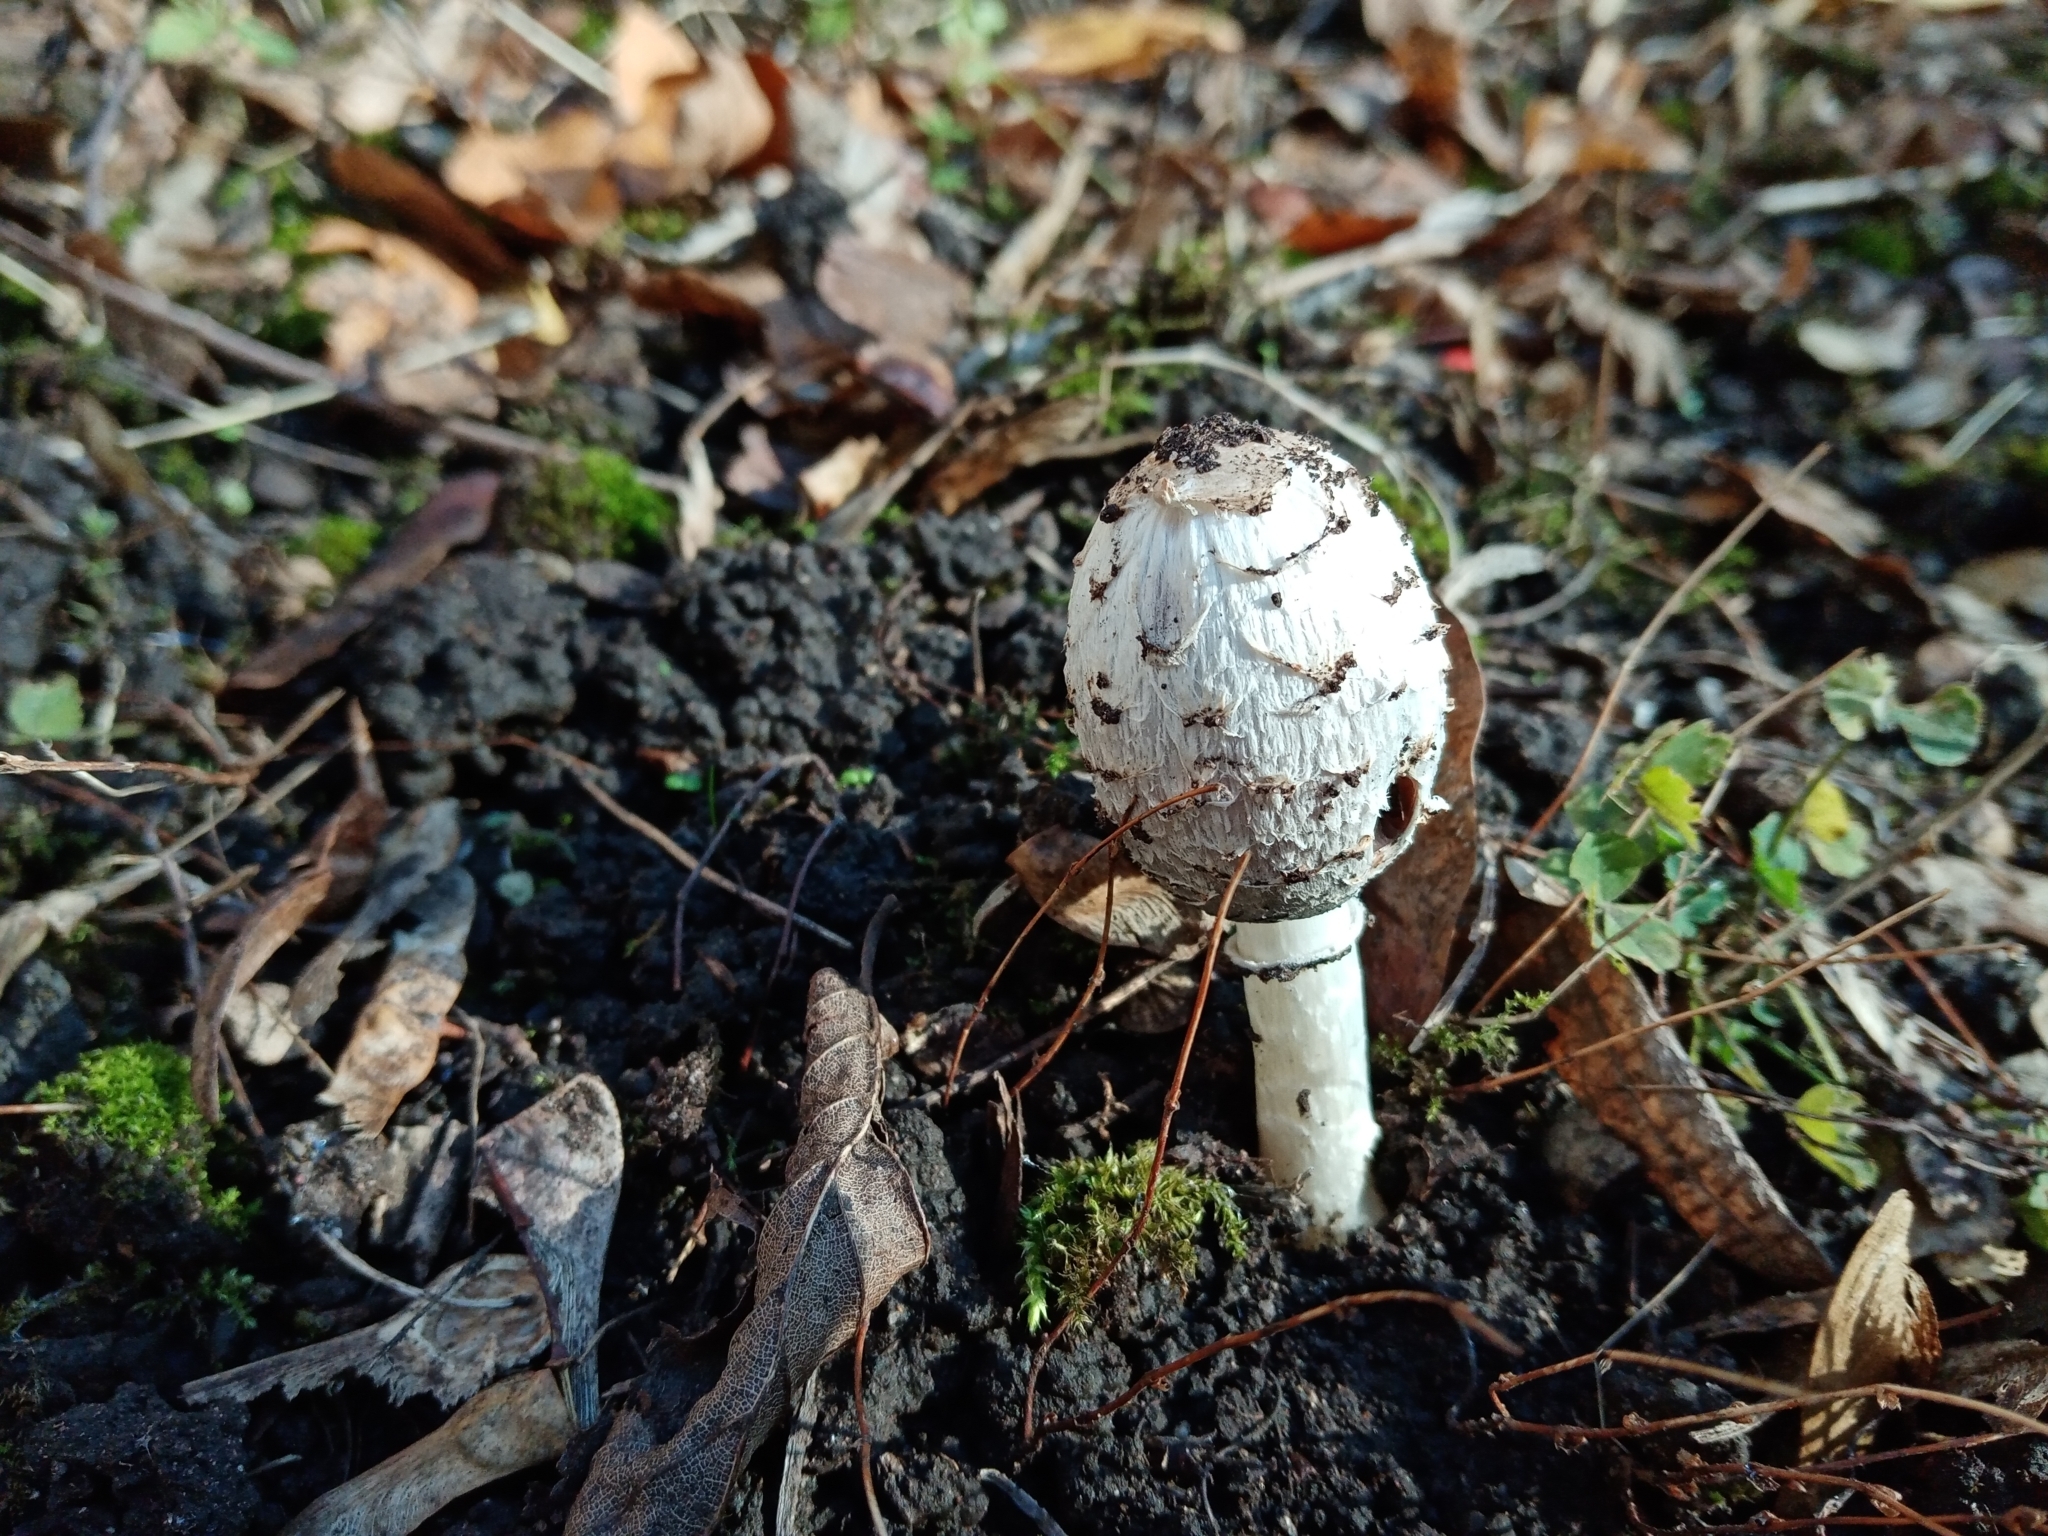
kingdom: Fungi
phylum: Basidiomycota
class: Agaricomycetes
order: Agaricales
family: Agaricaceae
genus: Coprinus
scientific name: Coprinus comatus
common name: Lawyer's wig
